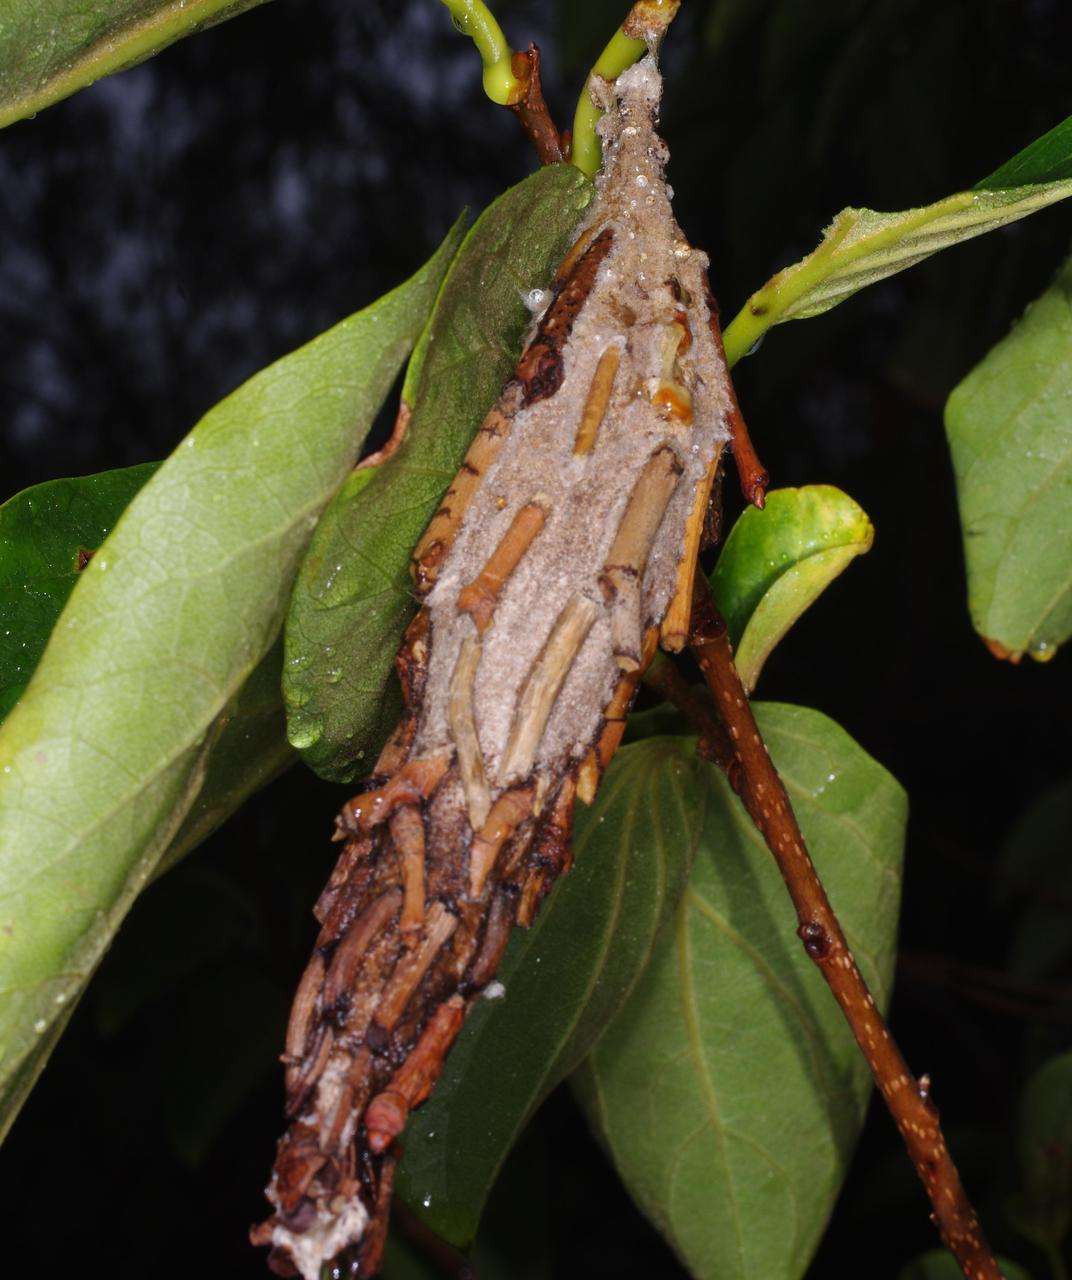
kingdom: Animalia
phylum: Arthropoda
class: Insecta
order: Lepidoptera
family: Psychidae
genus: Metura
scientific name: Metura elongatus
